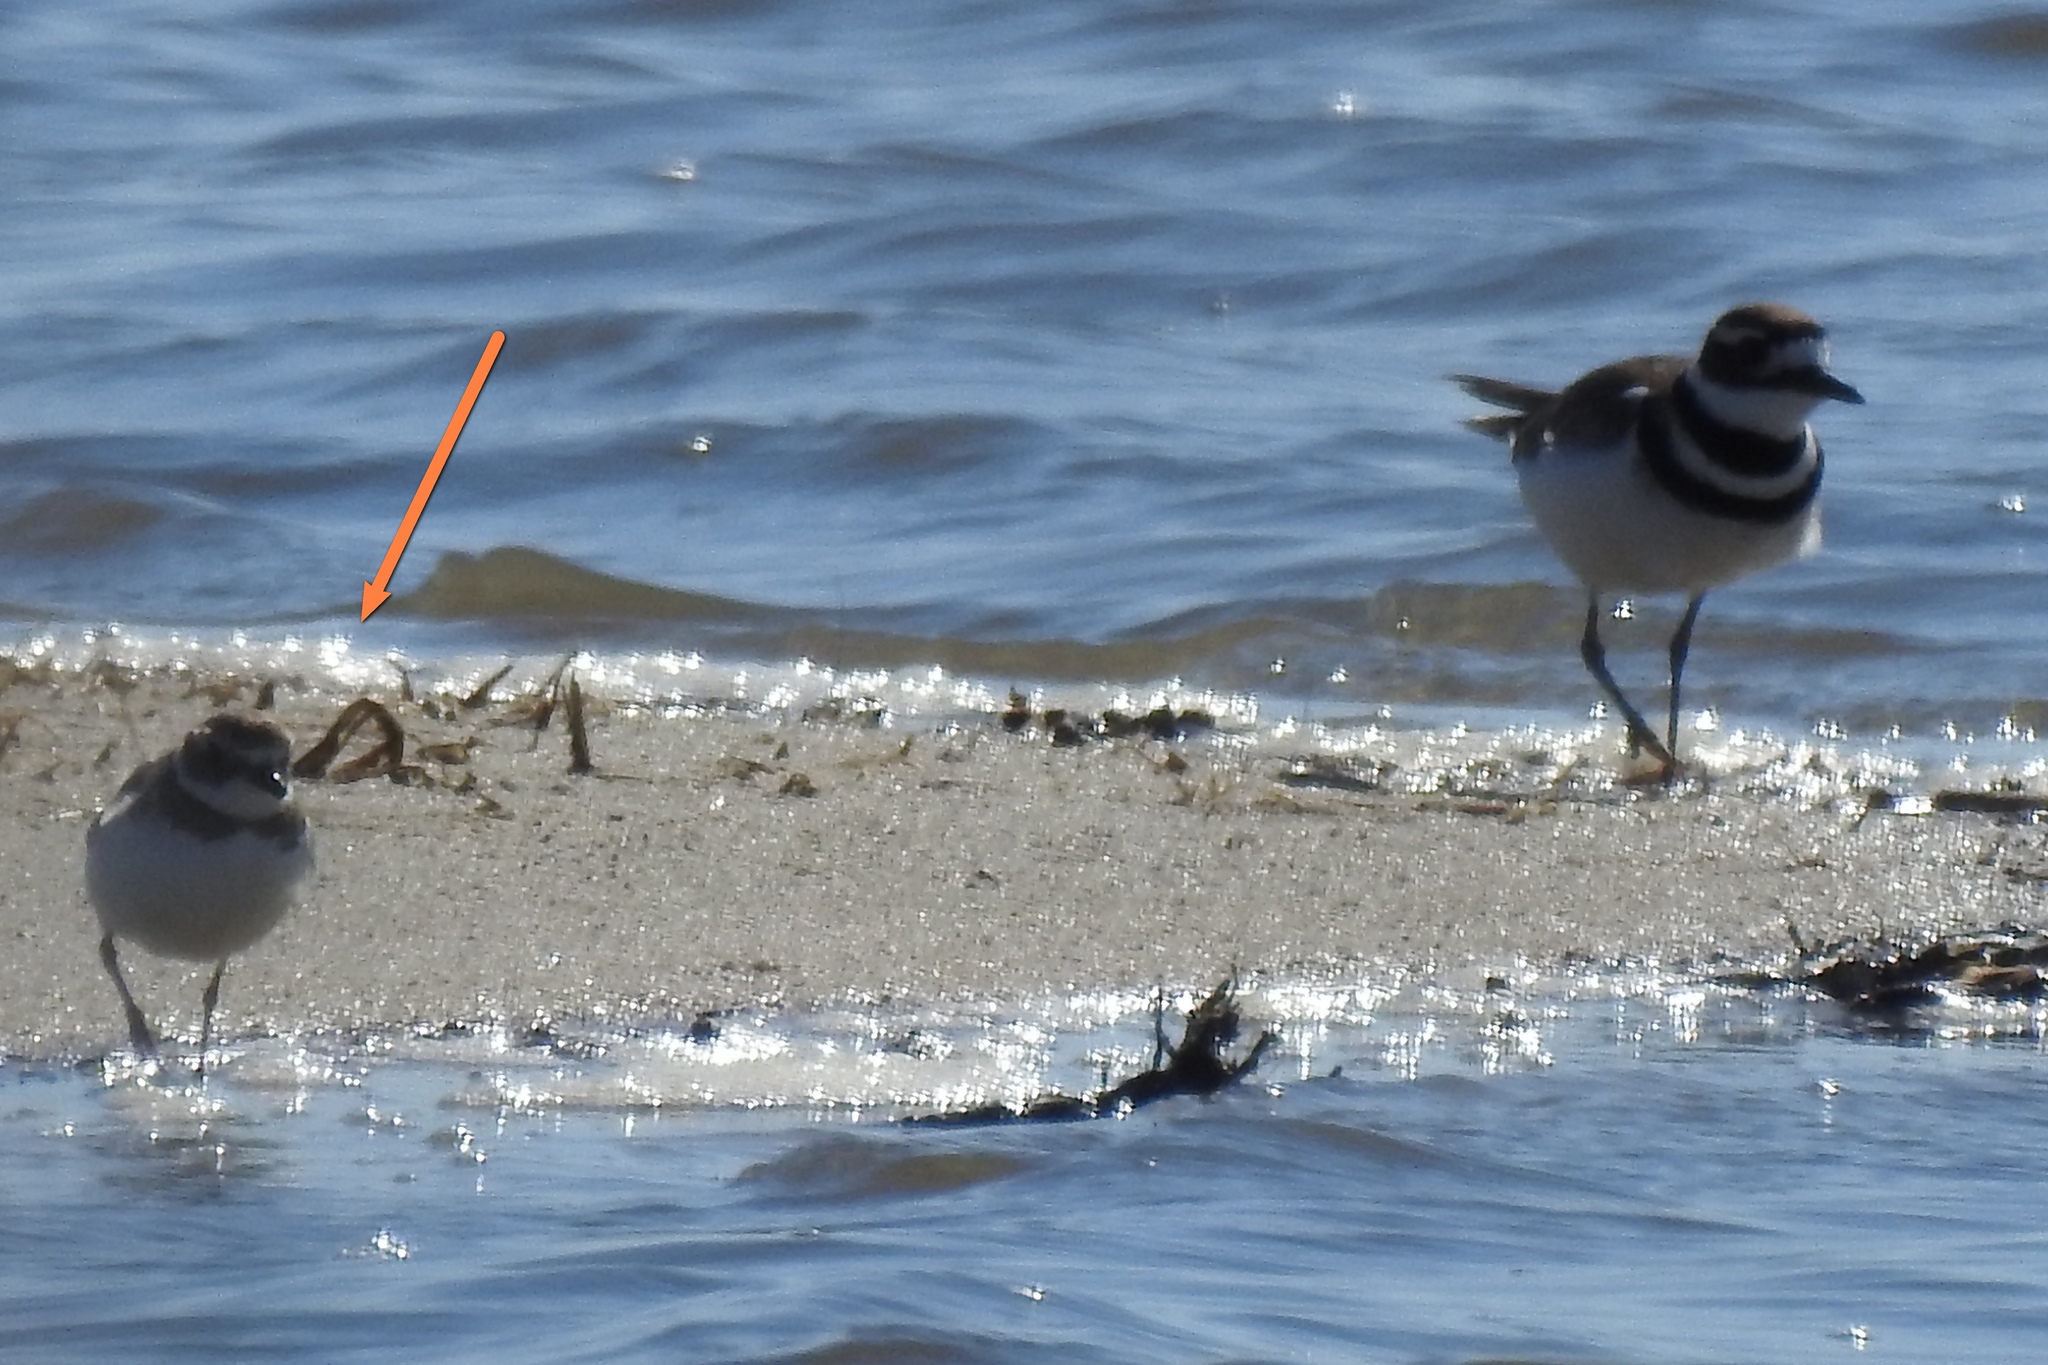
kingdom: Animalia
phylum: Chordata
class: Aves
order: Charadriiformes
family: Charadriidae
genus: Charadrius
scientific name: Charadrius semipalmatus
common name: Semipalmated plover
